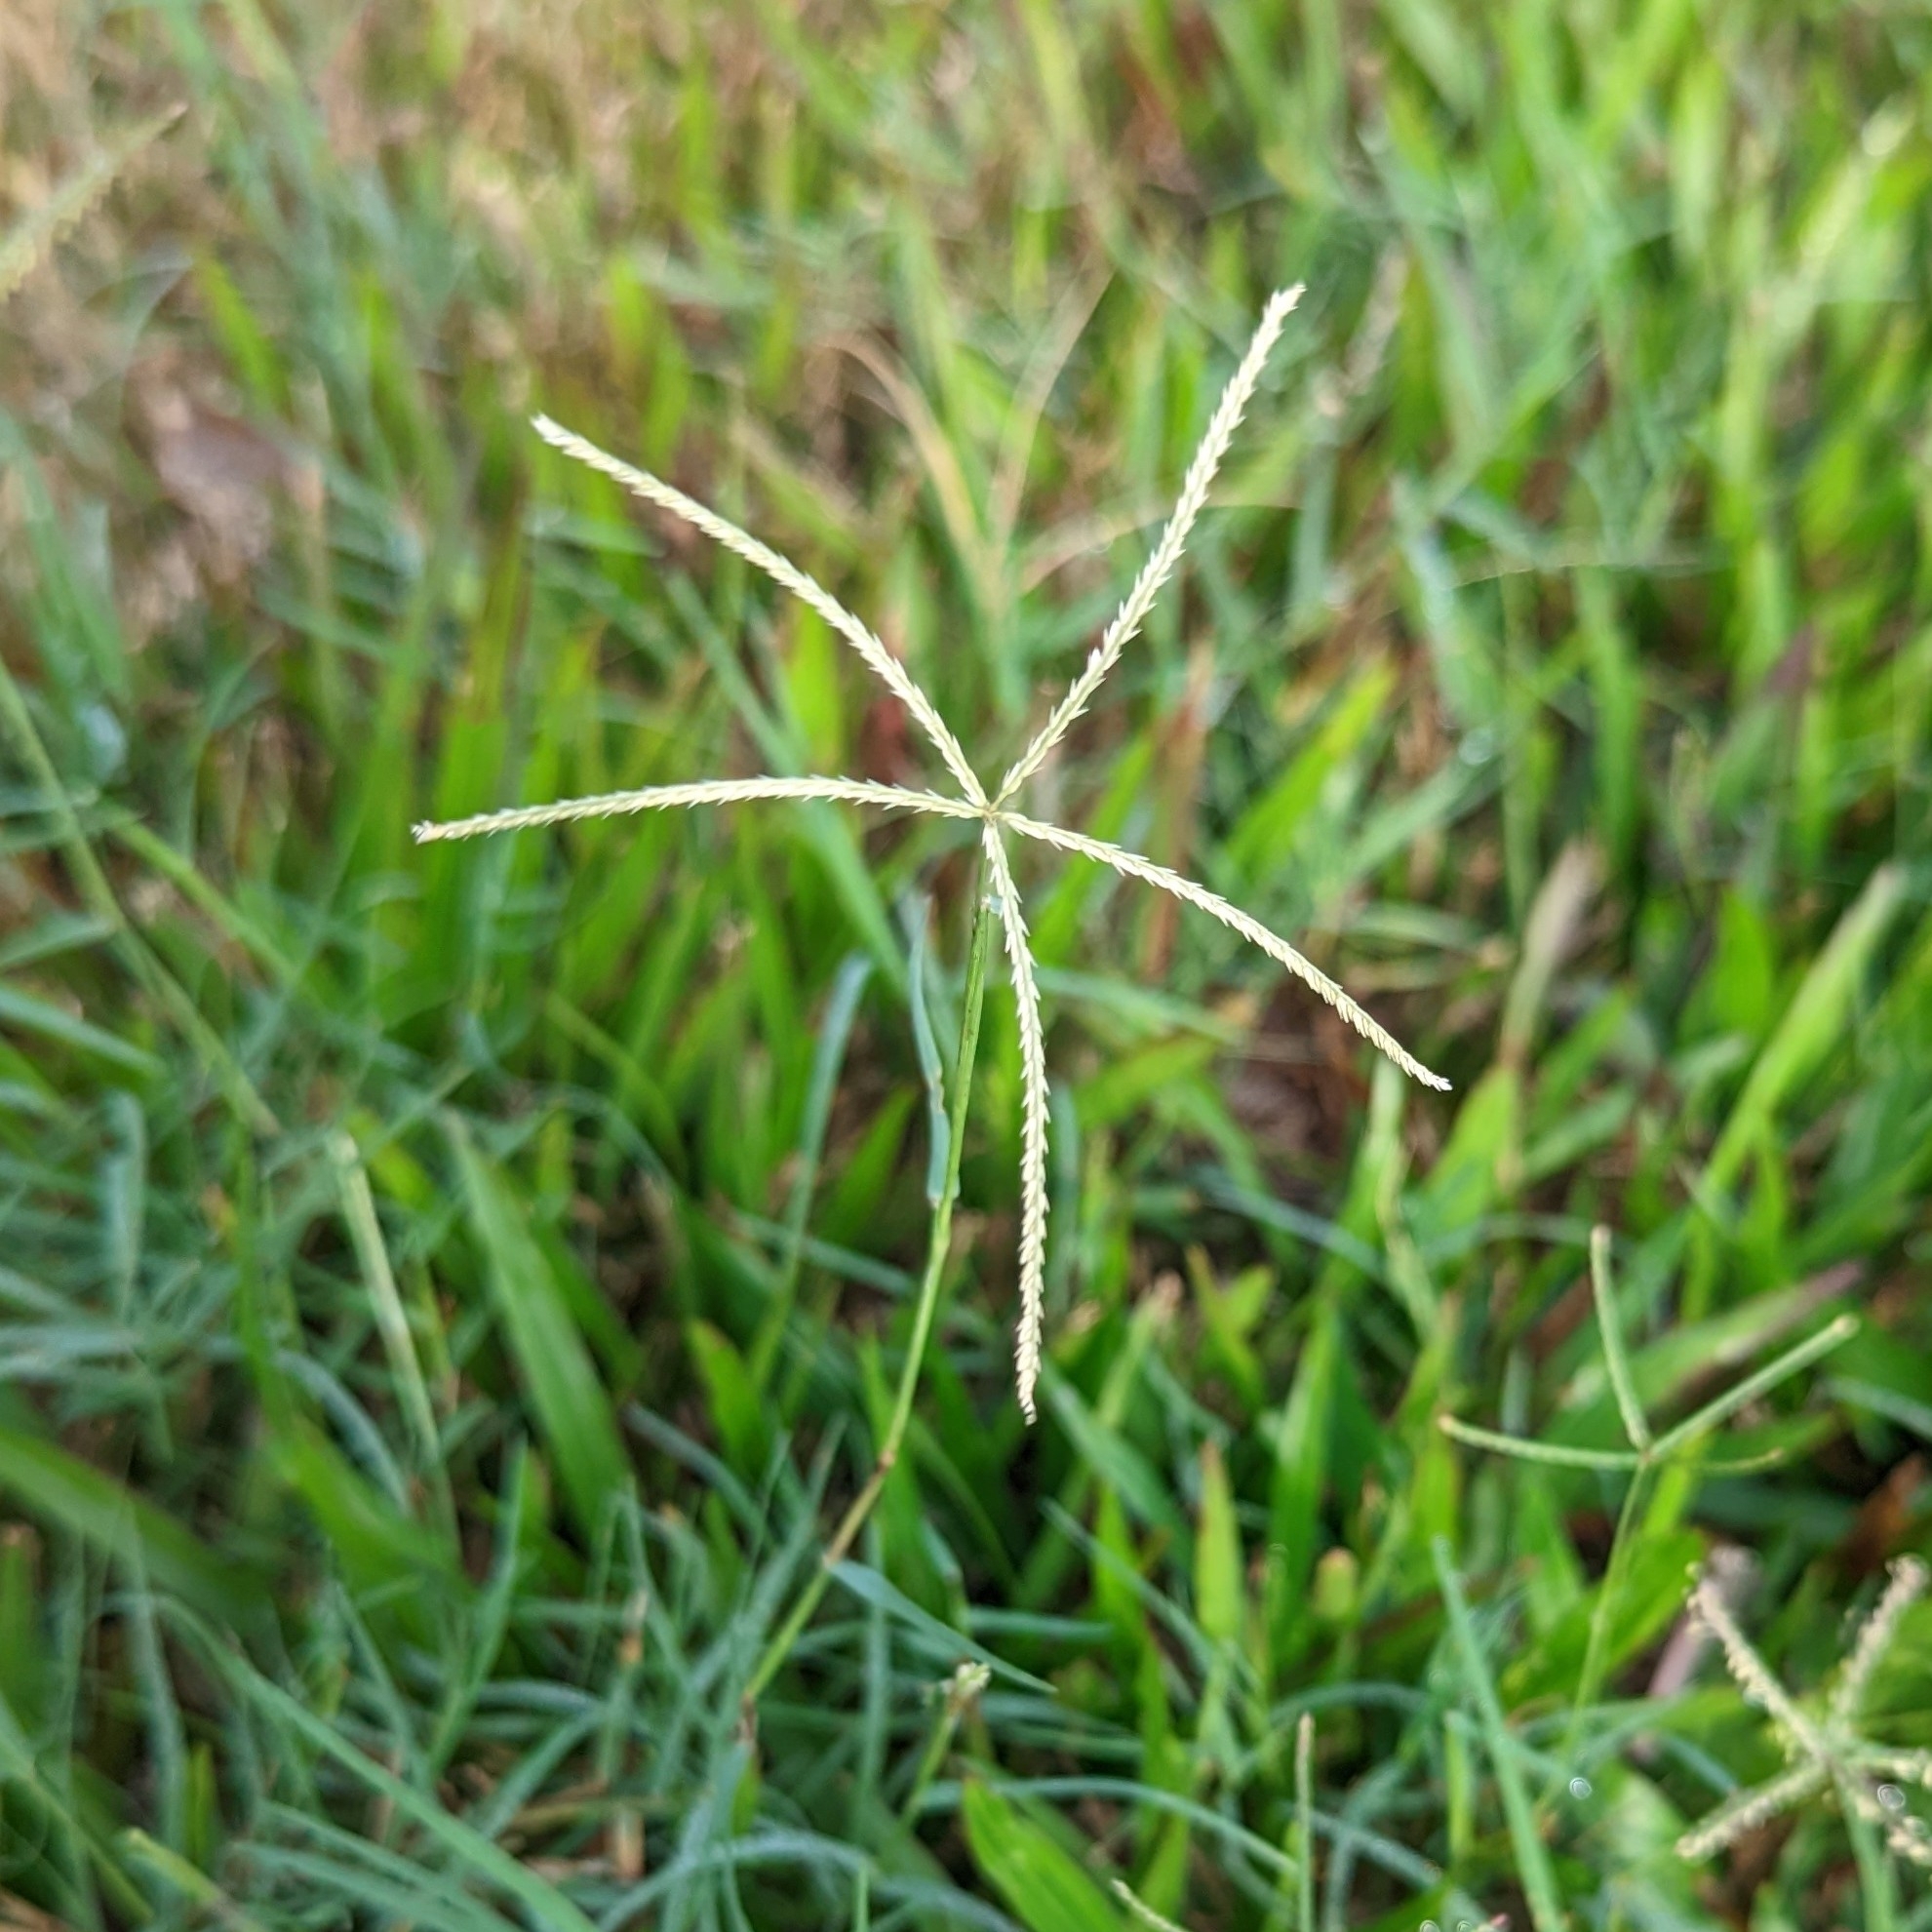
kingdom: Plantae
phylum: Tracheophyta
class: Liliopsida
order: Poales
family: Poaceae
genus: Cynodon
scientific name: Cynodon dactylon
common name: Bermuda grass
